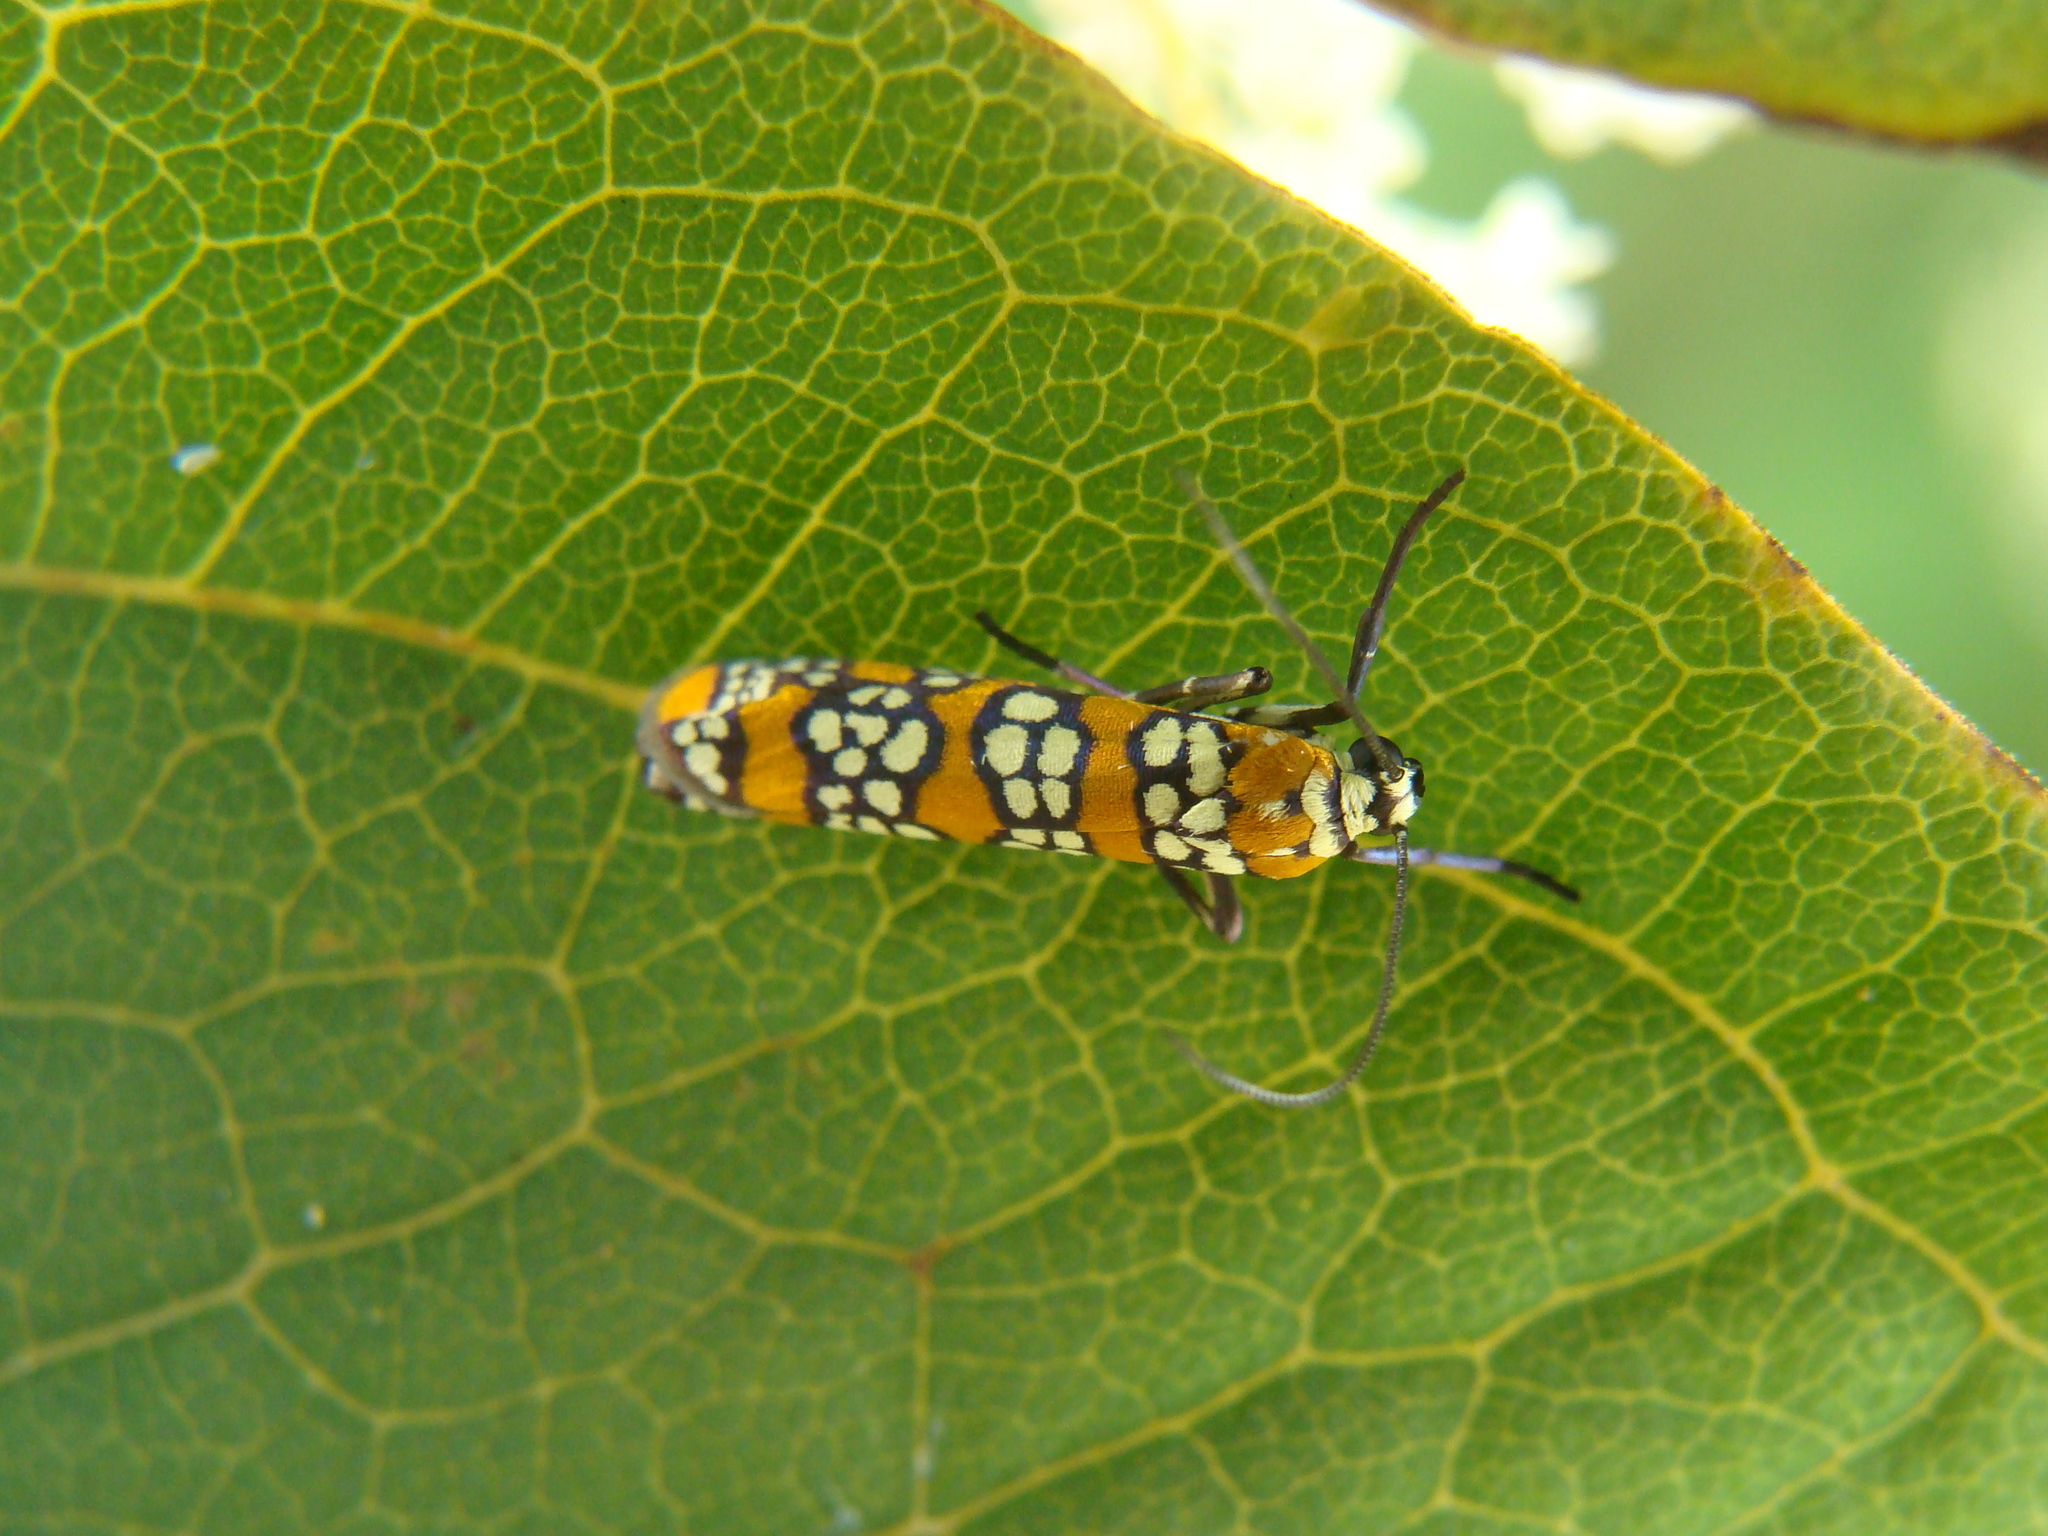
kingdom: Animalia
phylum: Arthropoda
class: Insecta
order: Lepidoptera
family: Attevidae
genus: Atteva
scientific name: Atteva punctella
